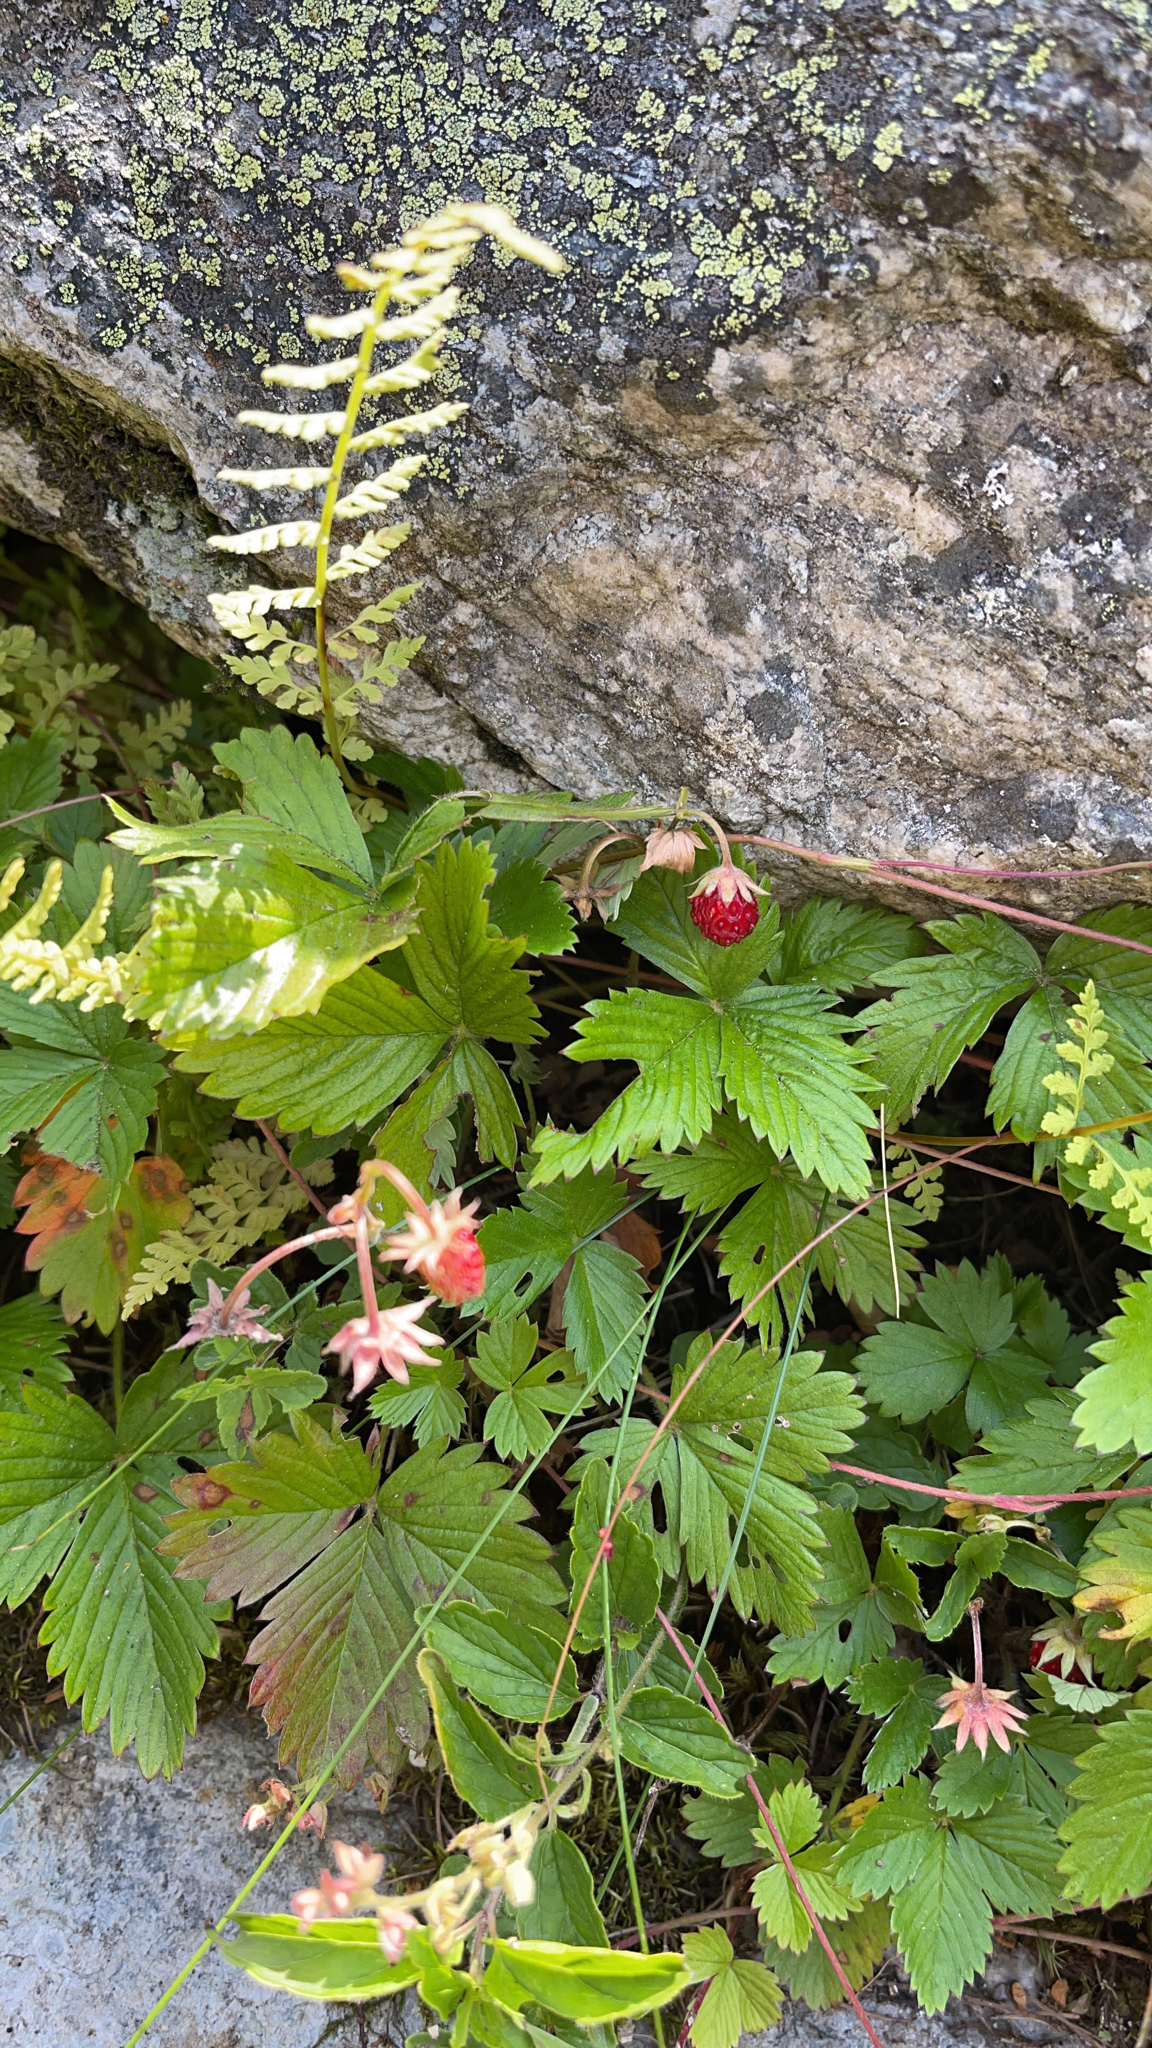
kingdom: Plantae
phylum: Tracheophyta
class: Magnoliopsida
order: Rosales
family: Rosaceae
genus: Fragaria
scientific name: Fragaria vesca
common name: Wild strawberry
